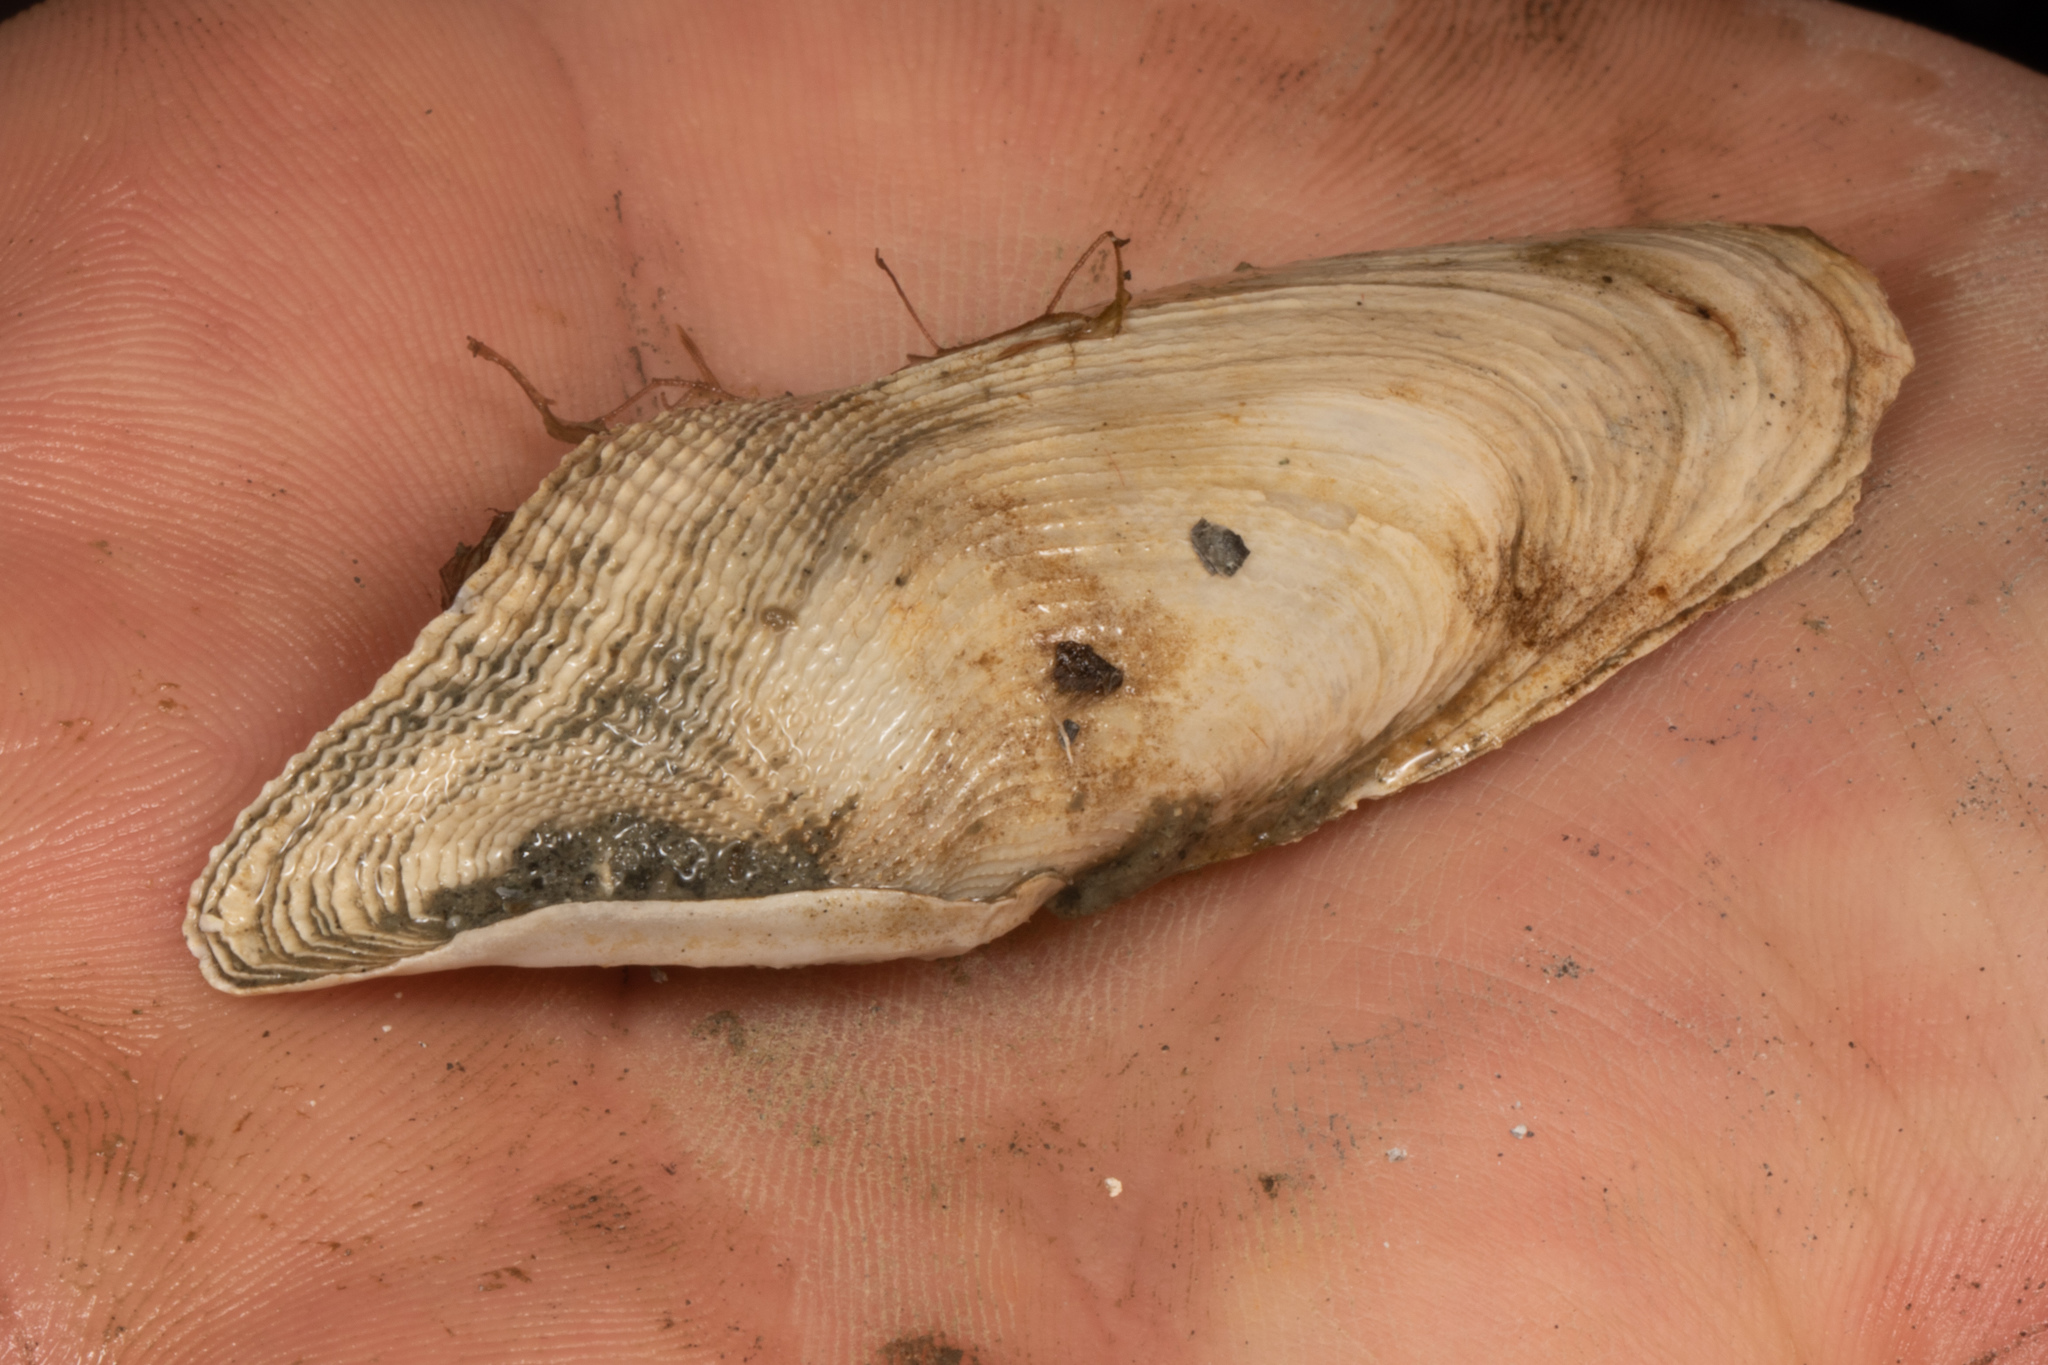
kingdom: Animalia
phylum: Mollusca
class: Bivalvia
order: Myida
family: Pholadidae
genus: Barnea
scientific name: Barnea similis
